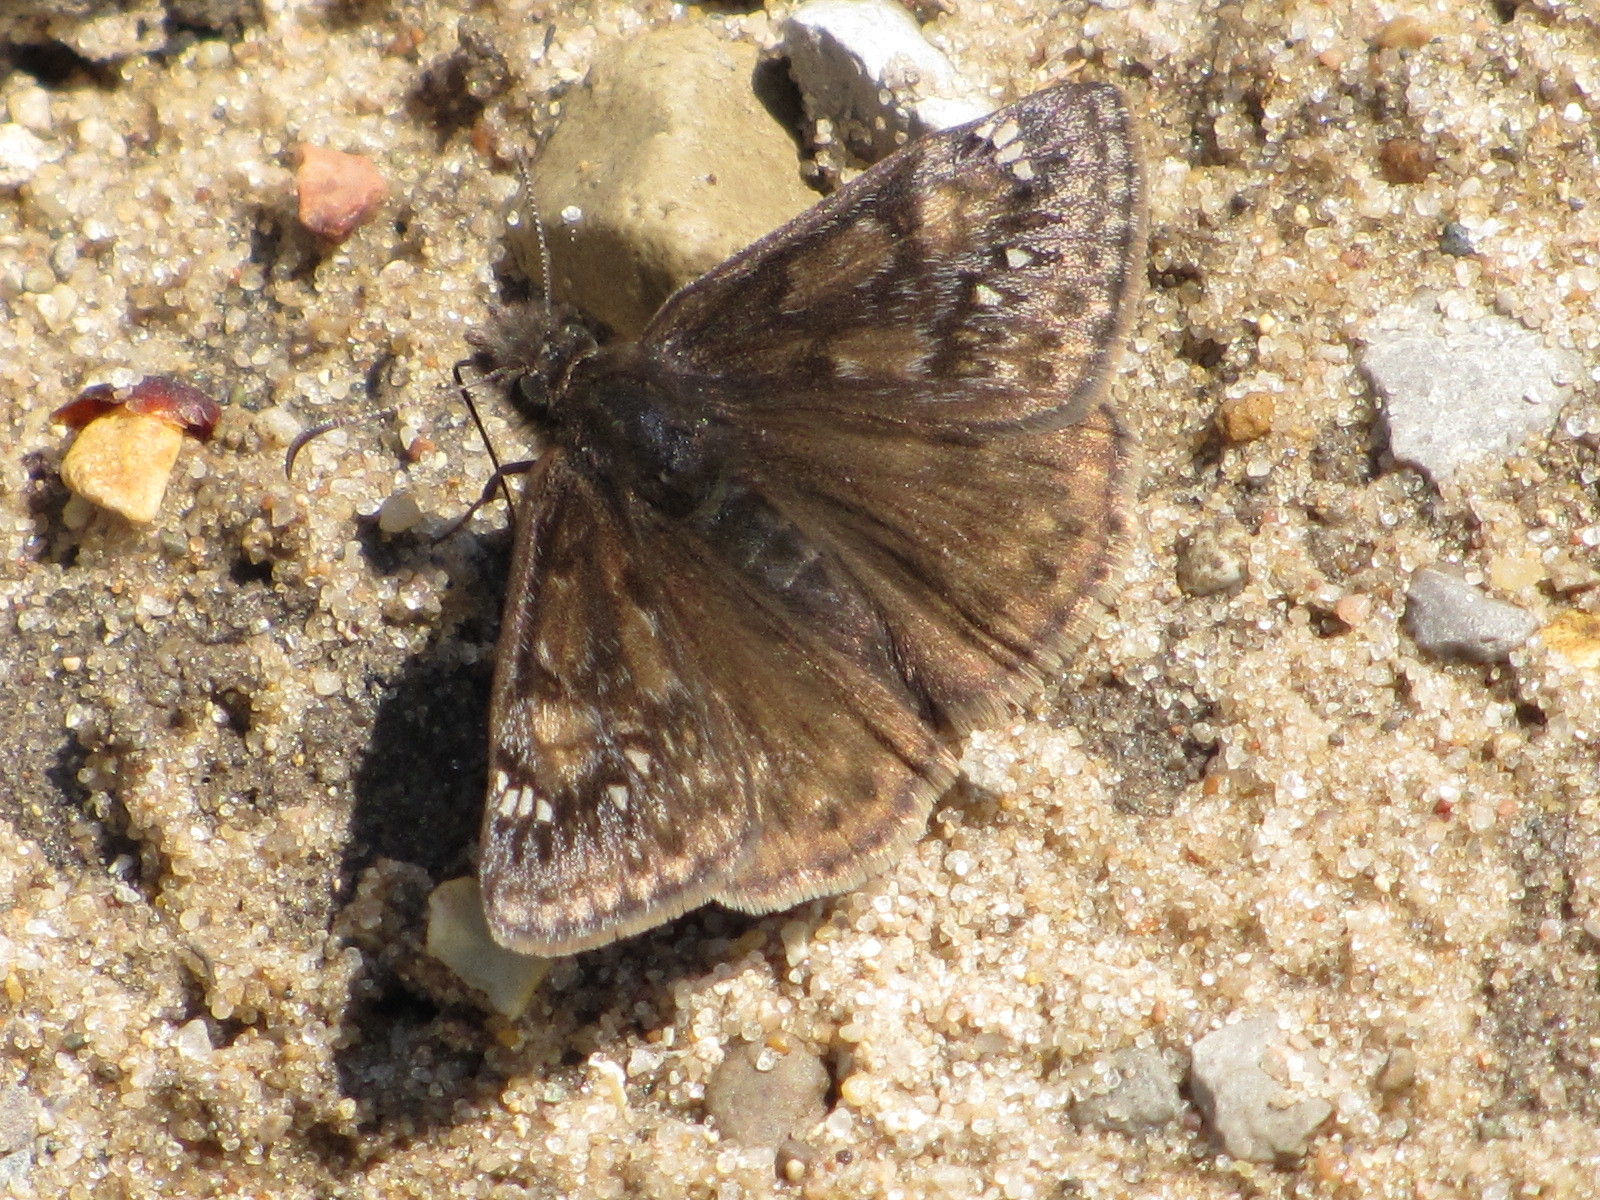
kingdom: Animalia
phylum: Arthropoda
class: Insecta
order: Lepidoptera
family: Hesperiidae
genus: Erynnis
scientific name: Erynnis juvenalis
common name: Juvenal's duskywing
